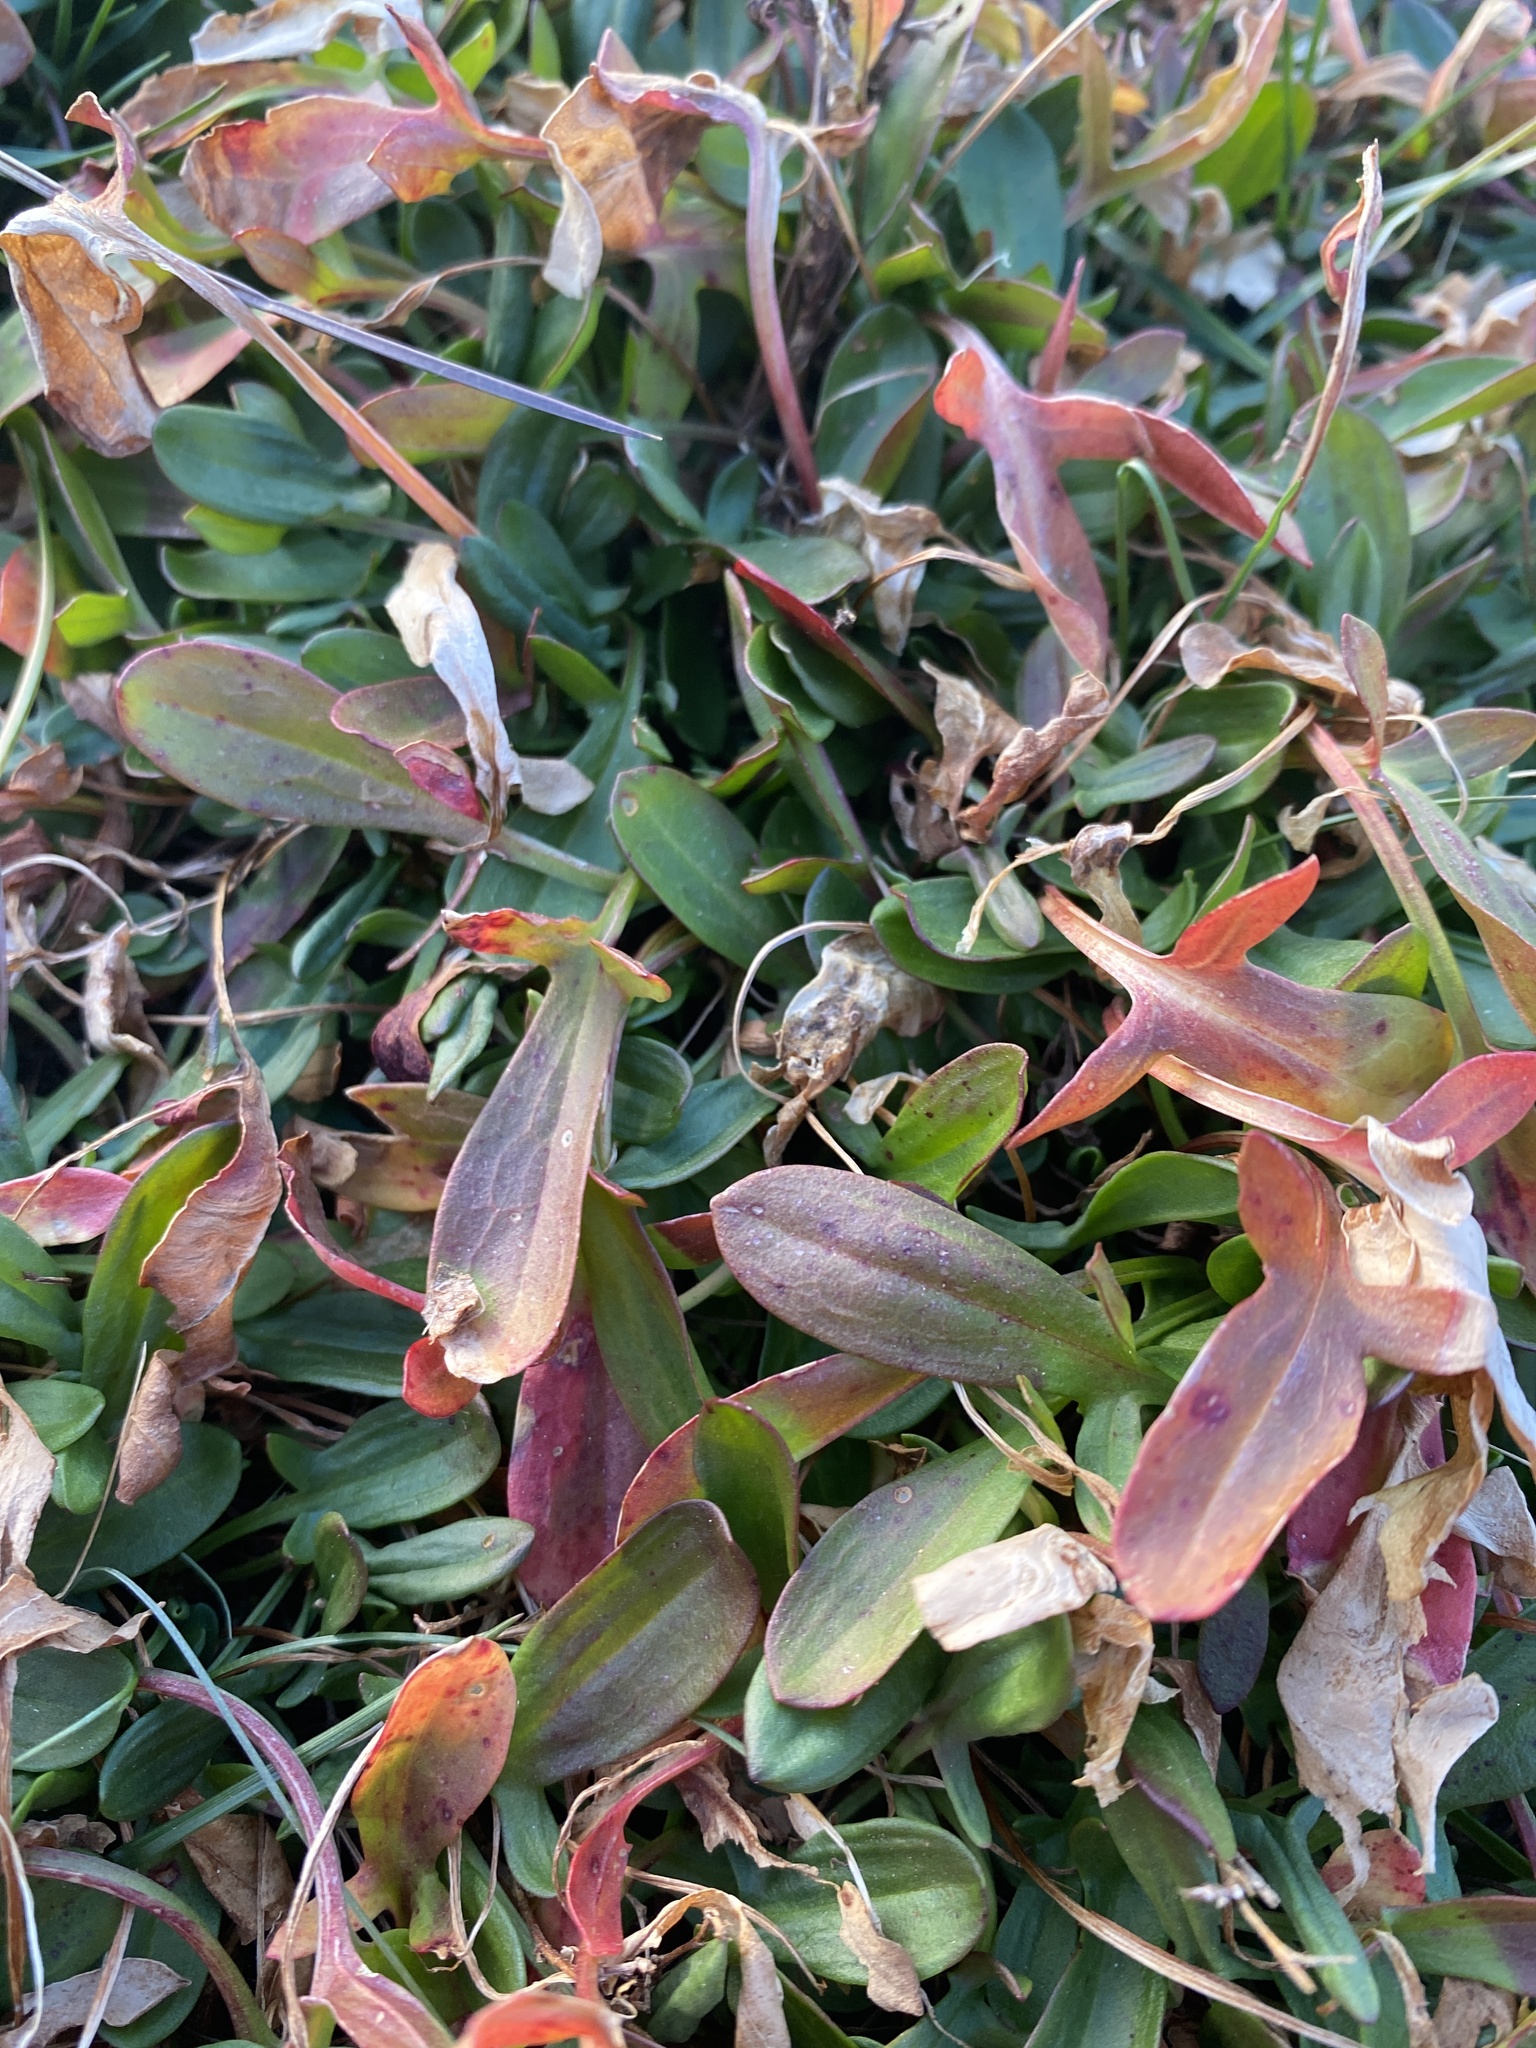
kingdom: Plantae
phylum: Tracheophyta
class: Magnoliopsida
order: Caryophyllales
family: Polygonaceae
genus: Rumex
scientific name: Rumex acetosella
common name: Common sheep sorrel
